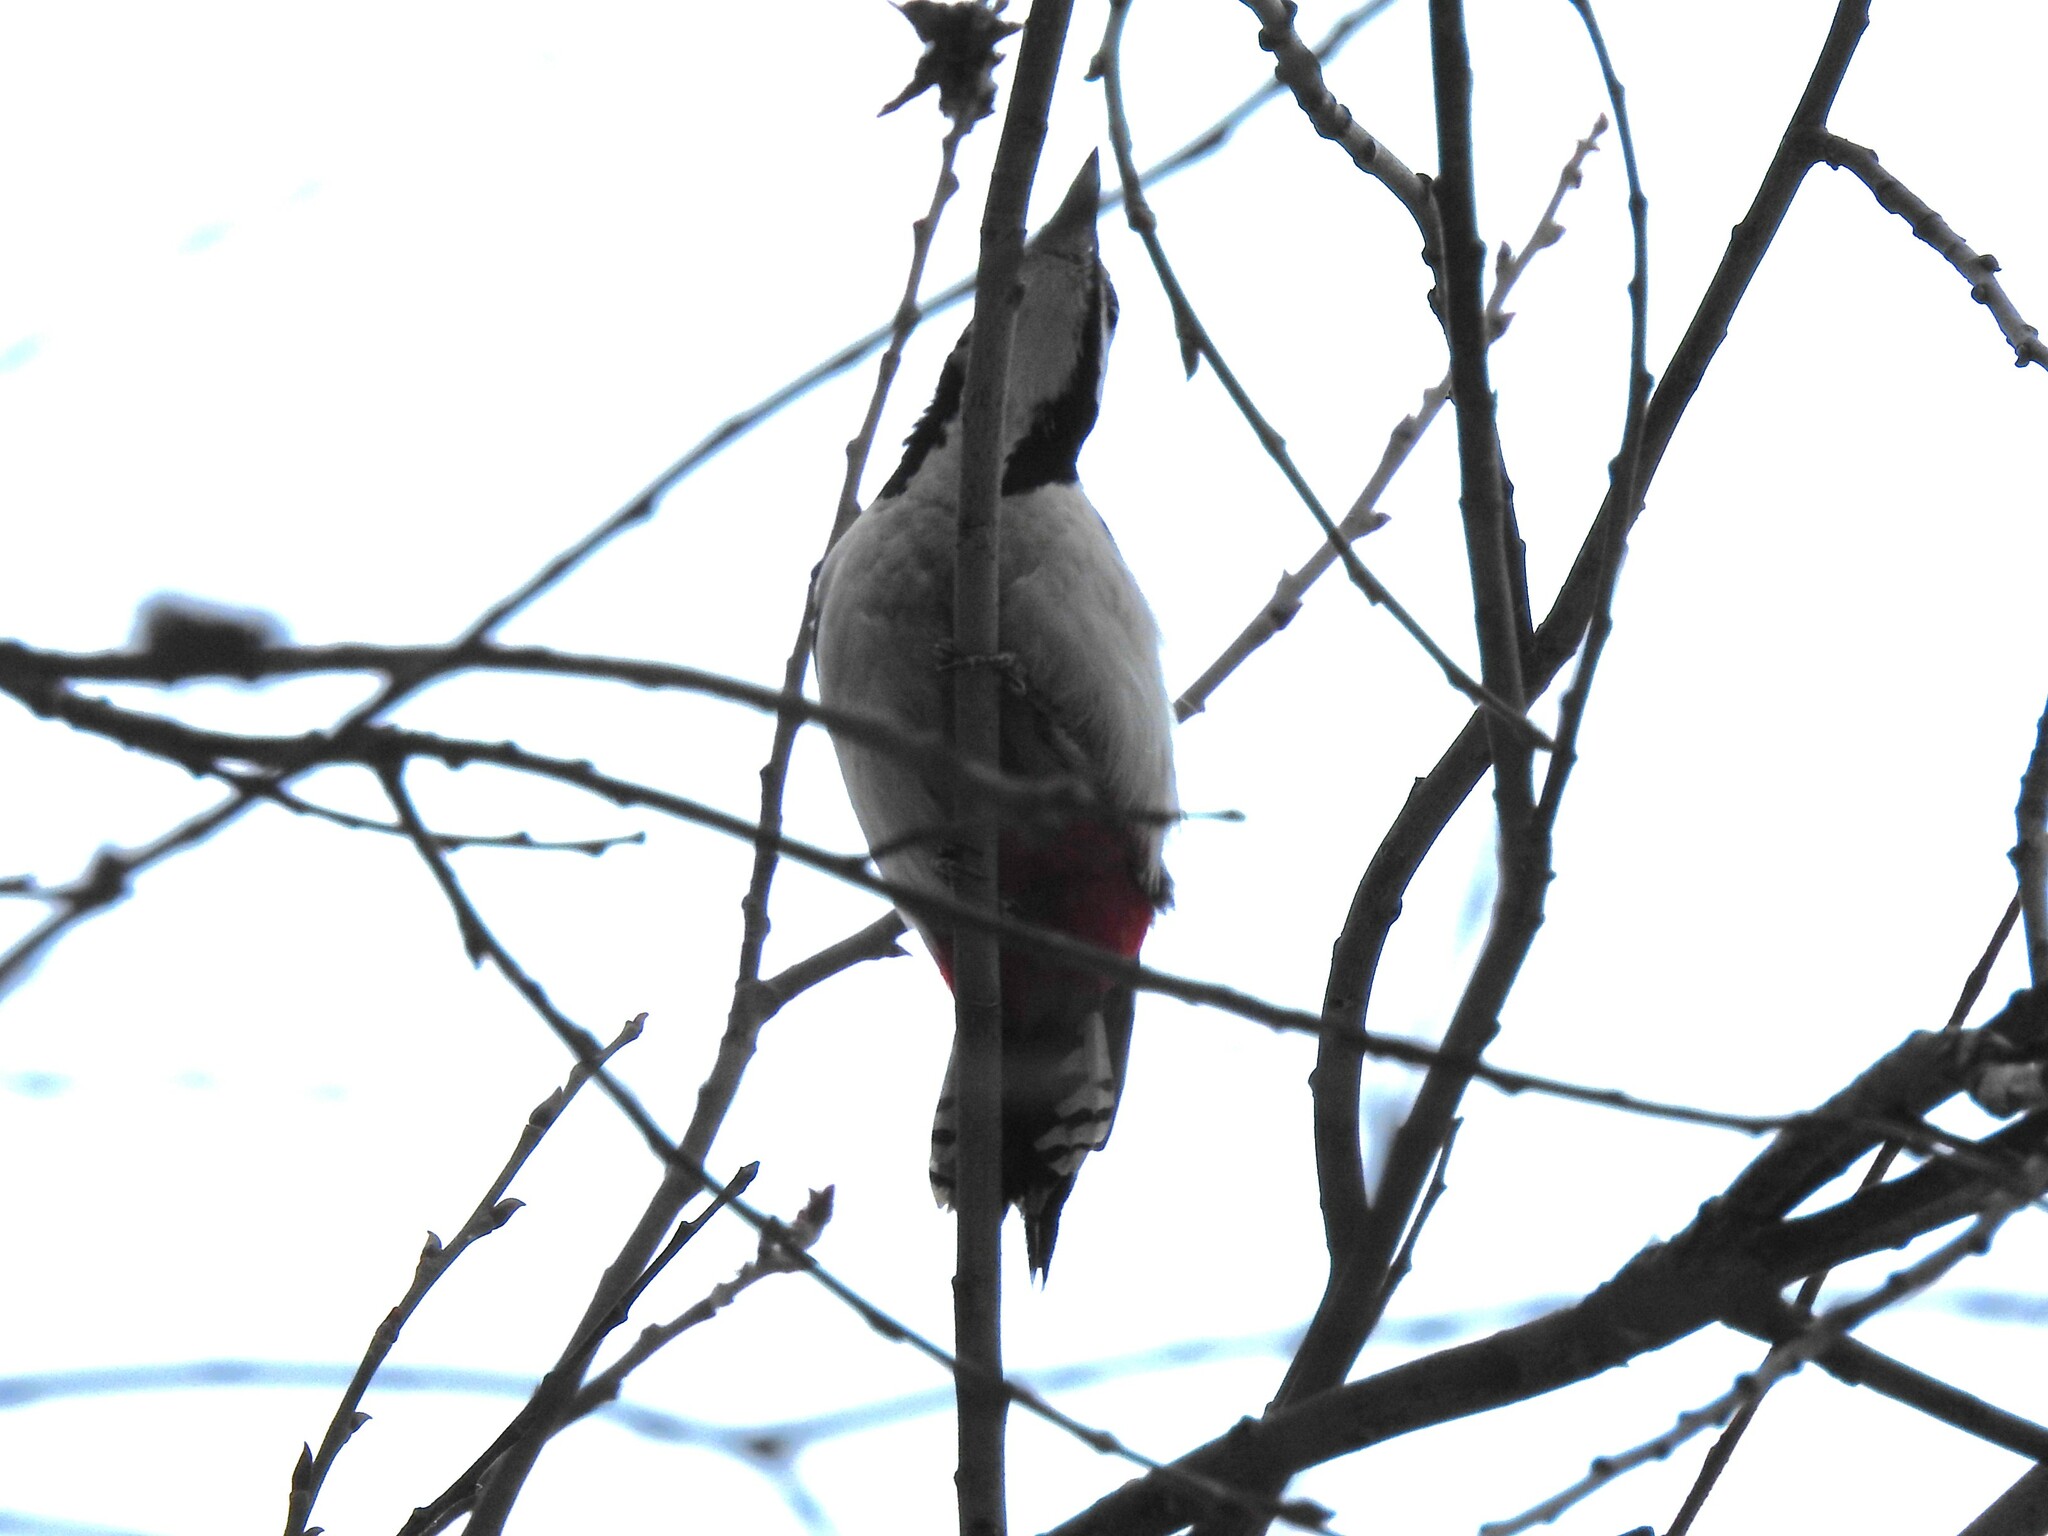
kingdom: Animalia
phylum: Chordata
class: Aves
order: Piciformes
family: Picidae
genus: Dendrocopos
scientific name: Dendrocopos major
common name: Great spotted woodpecker
